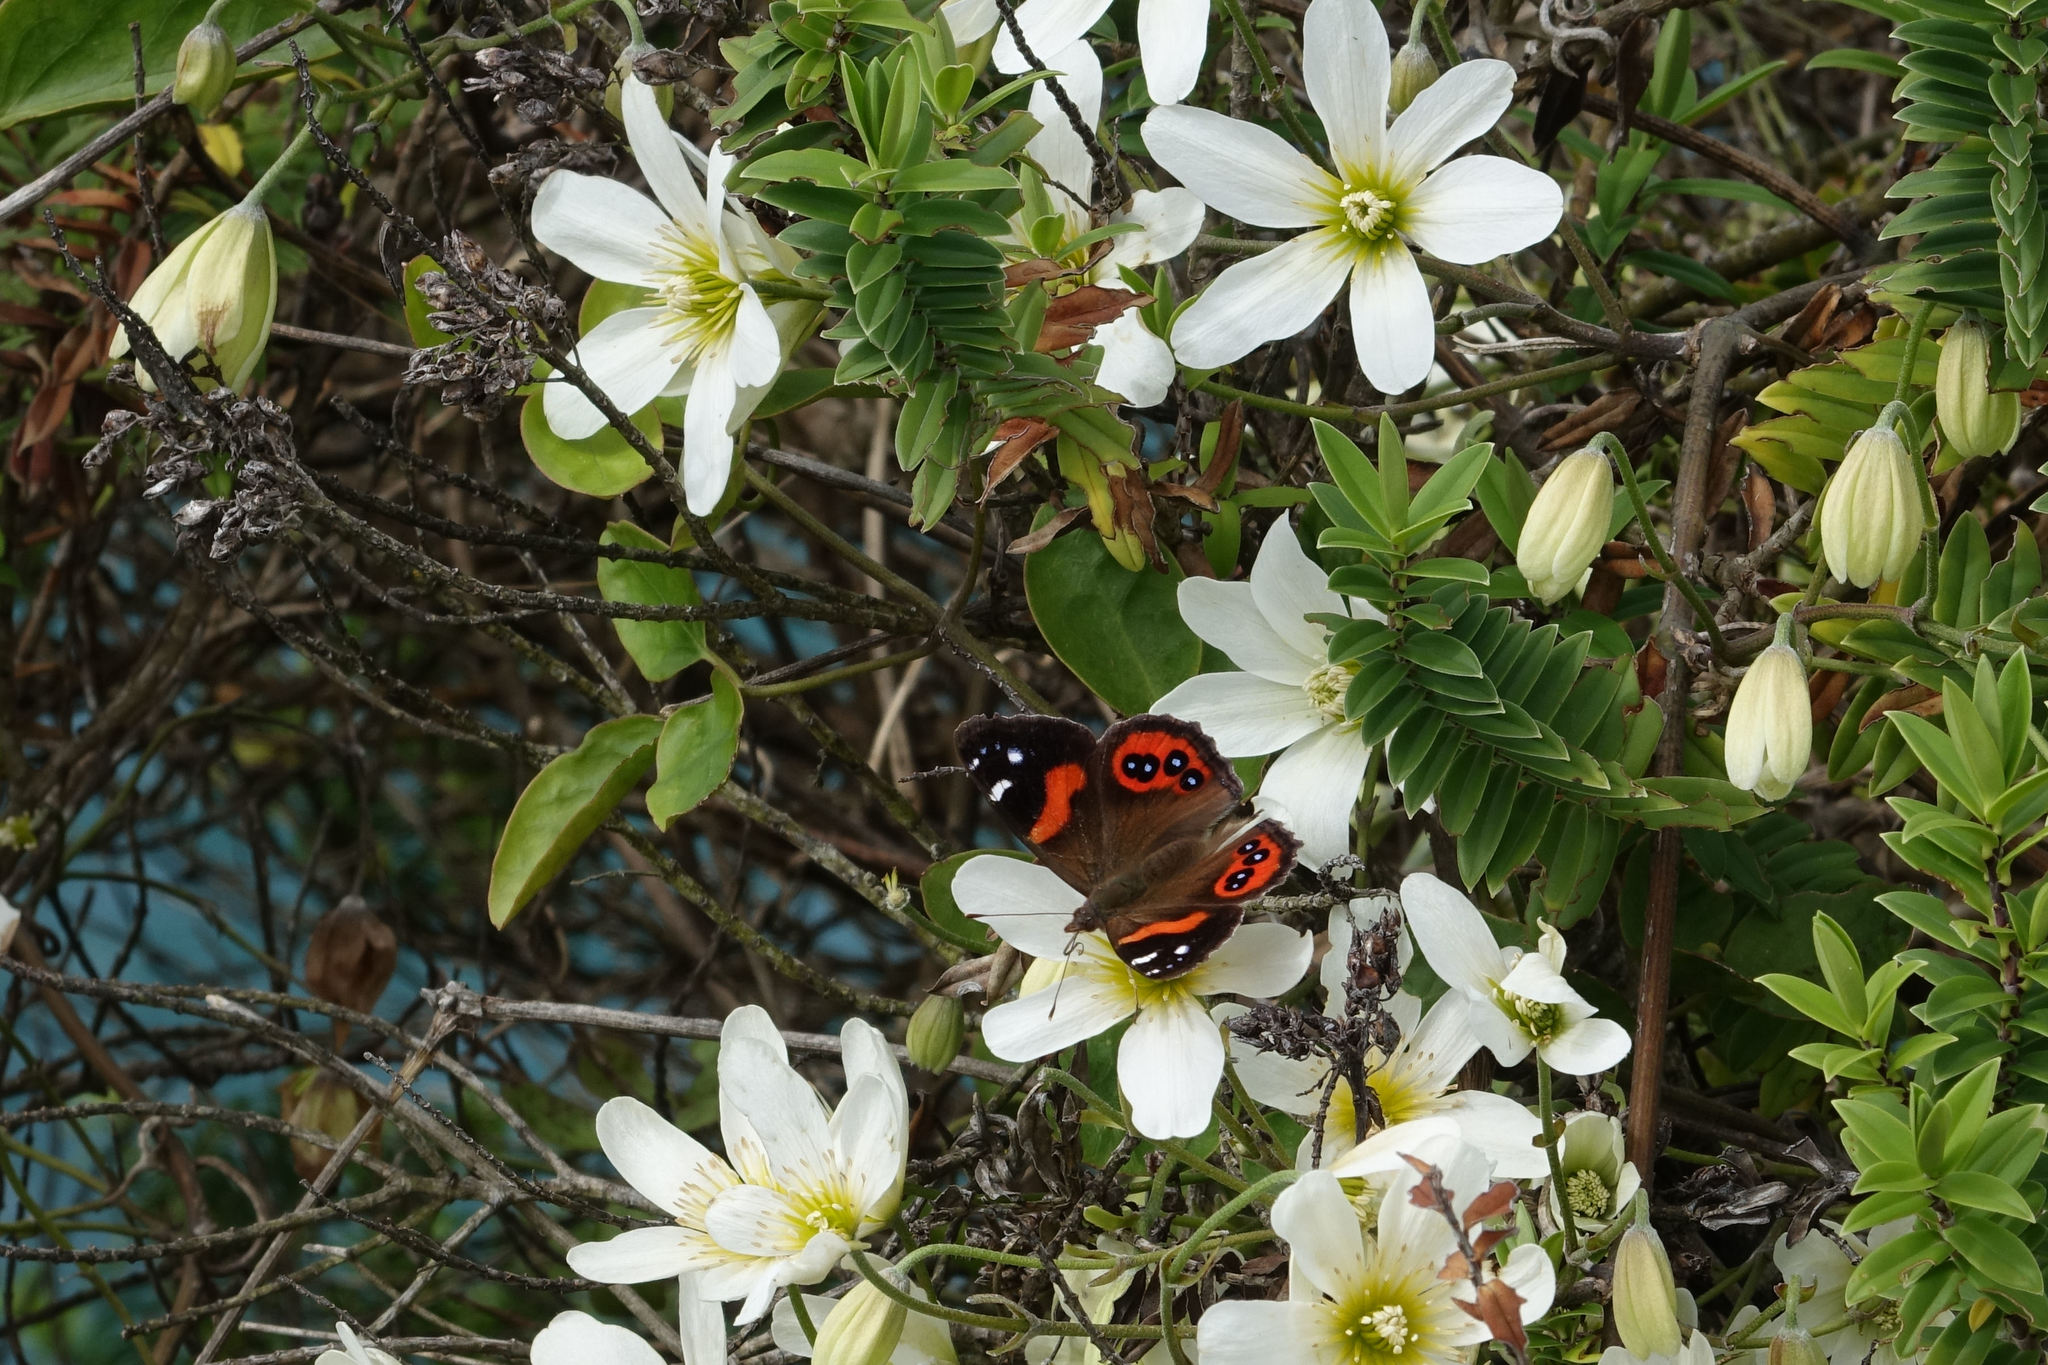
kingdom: Animalia
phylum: Arthropoda
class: Insecta
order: Lepidoptera
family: Nymphalidae
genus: Vanessa
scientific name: Vanessa gonerilla
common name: New zealand red admiral
